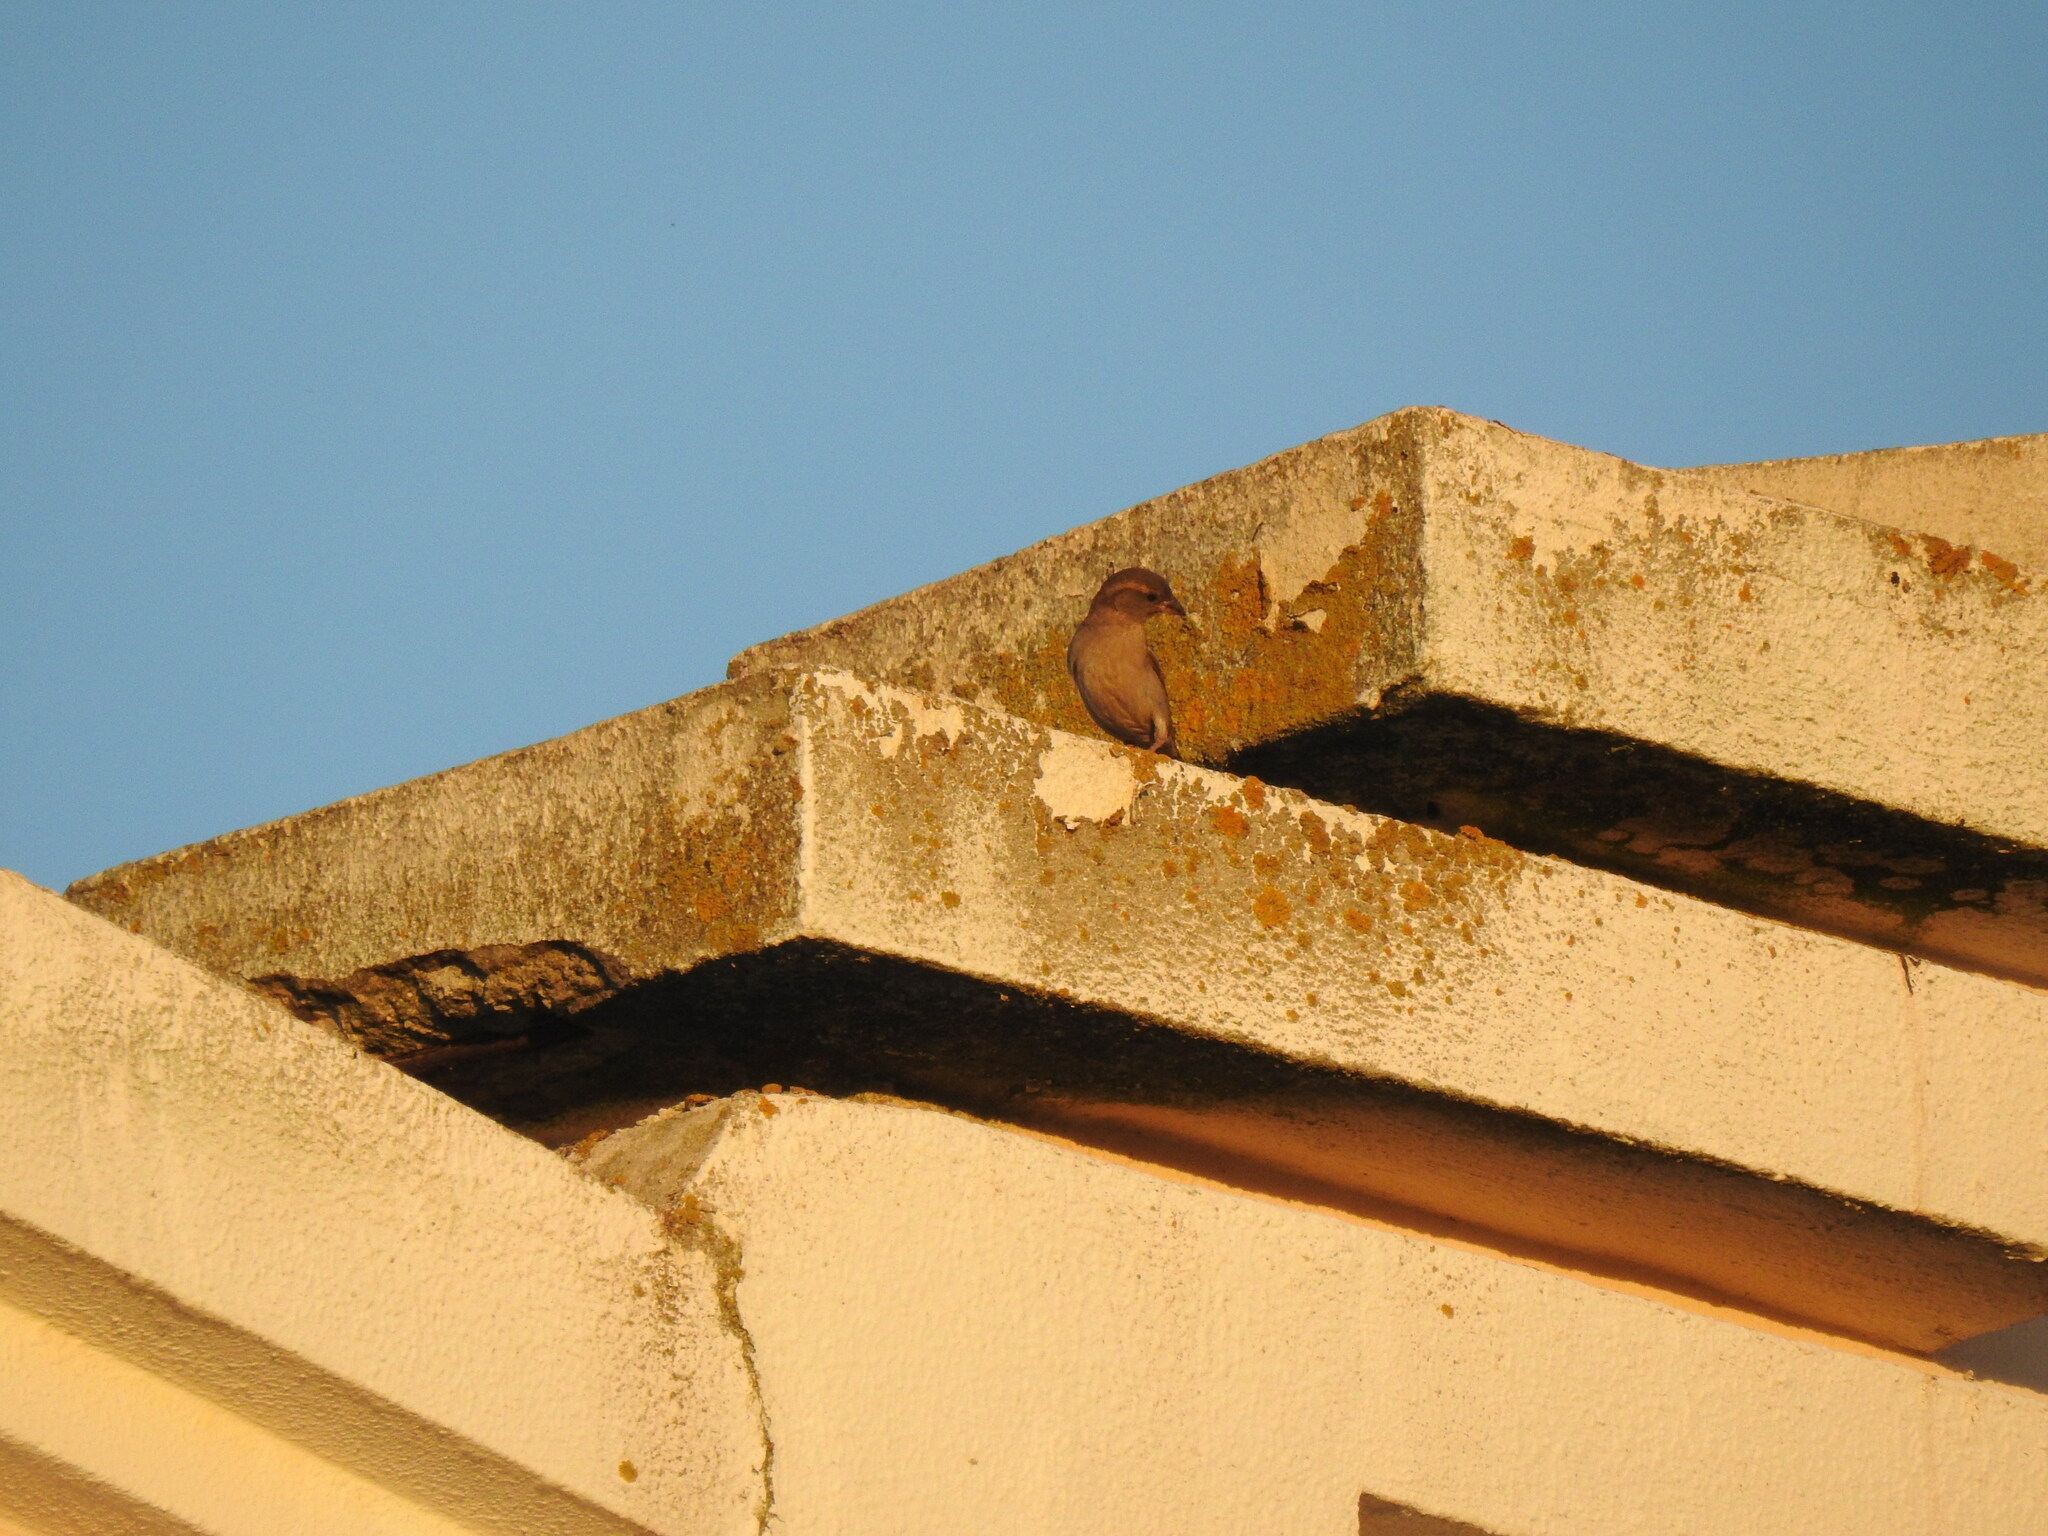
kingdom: Animalia
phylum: Chordata
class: Aves
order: Passeriformes
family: Passeridae
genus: Passer
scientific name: Passer domesticus
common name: House sparrow
